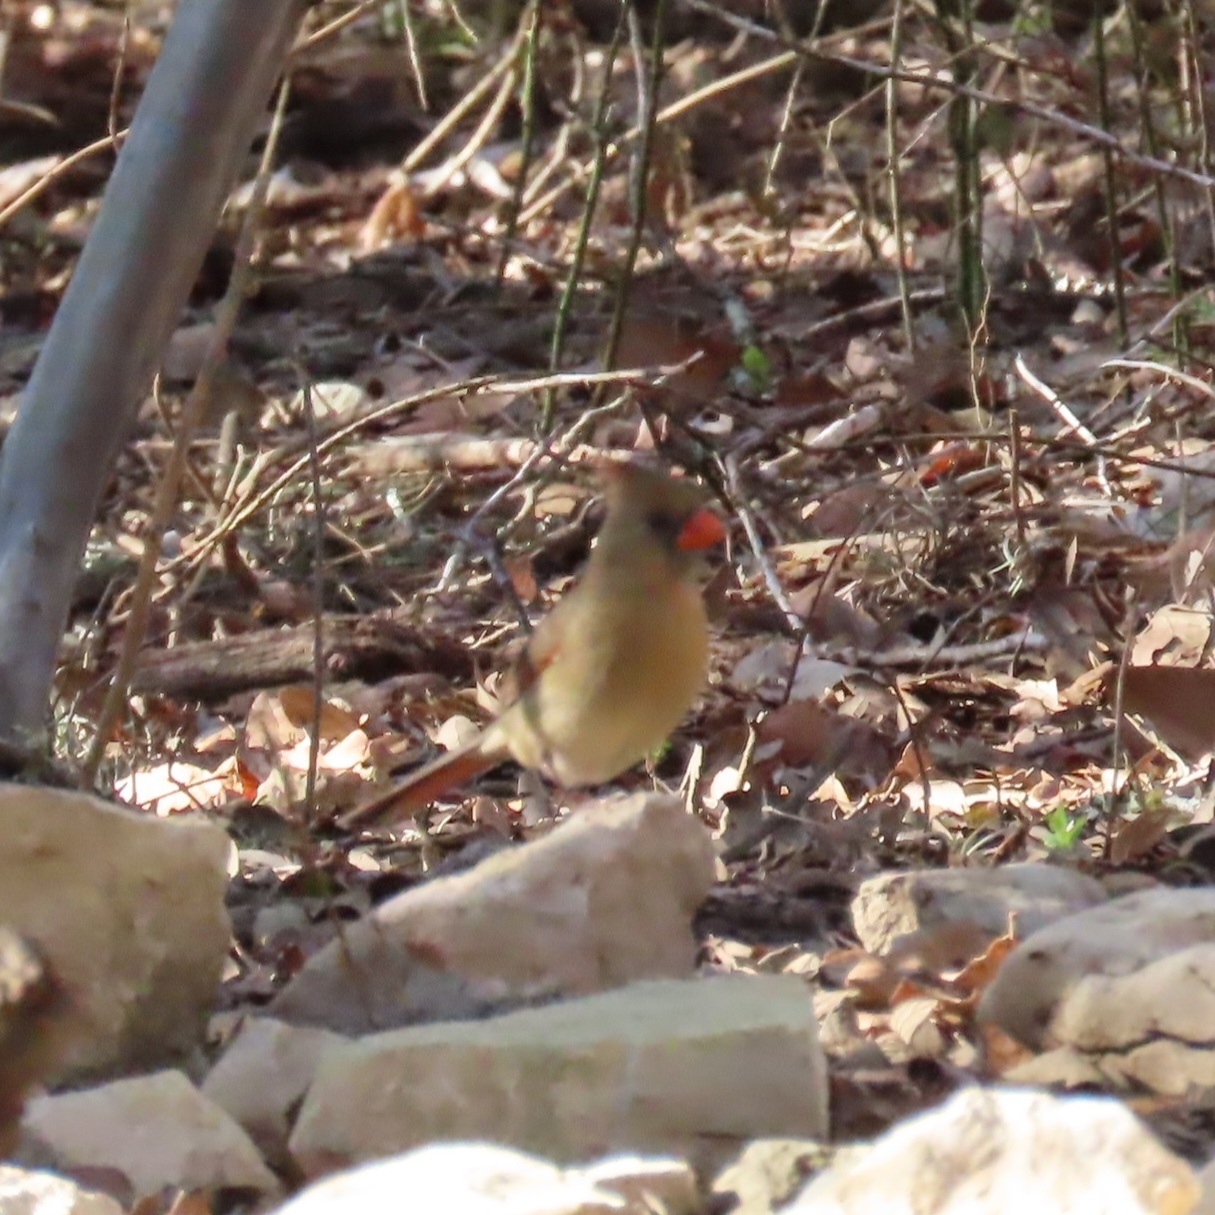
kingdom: Animalia
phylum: Chordata
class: Aves
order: Passeriformes
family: Cardinalidae
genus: Cardinalis
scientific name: Cardinalis cardinalis
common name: Northern cardinal
